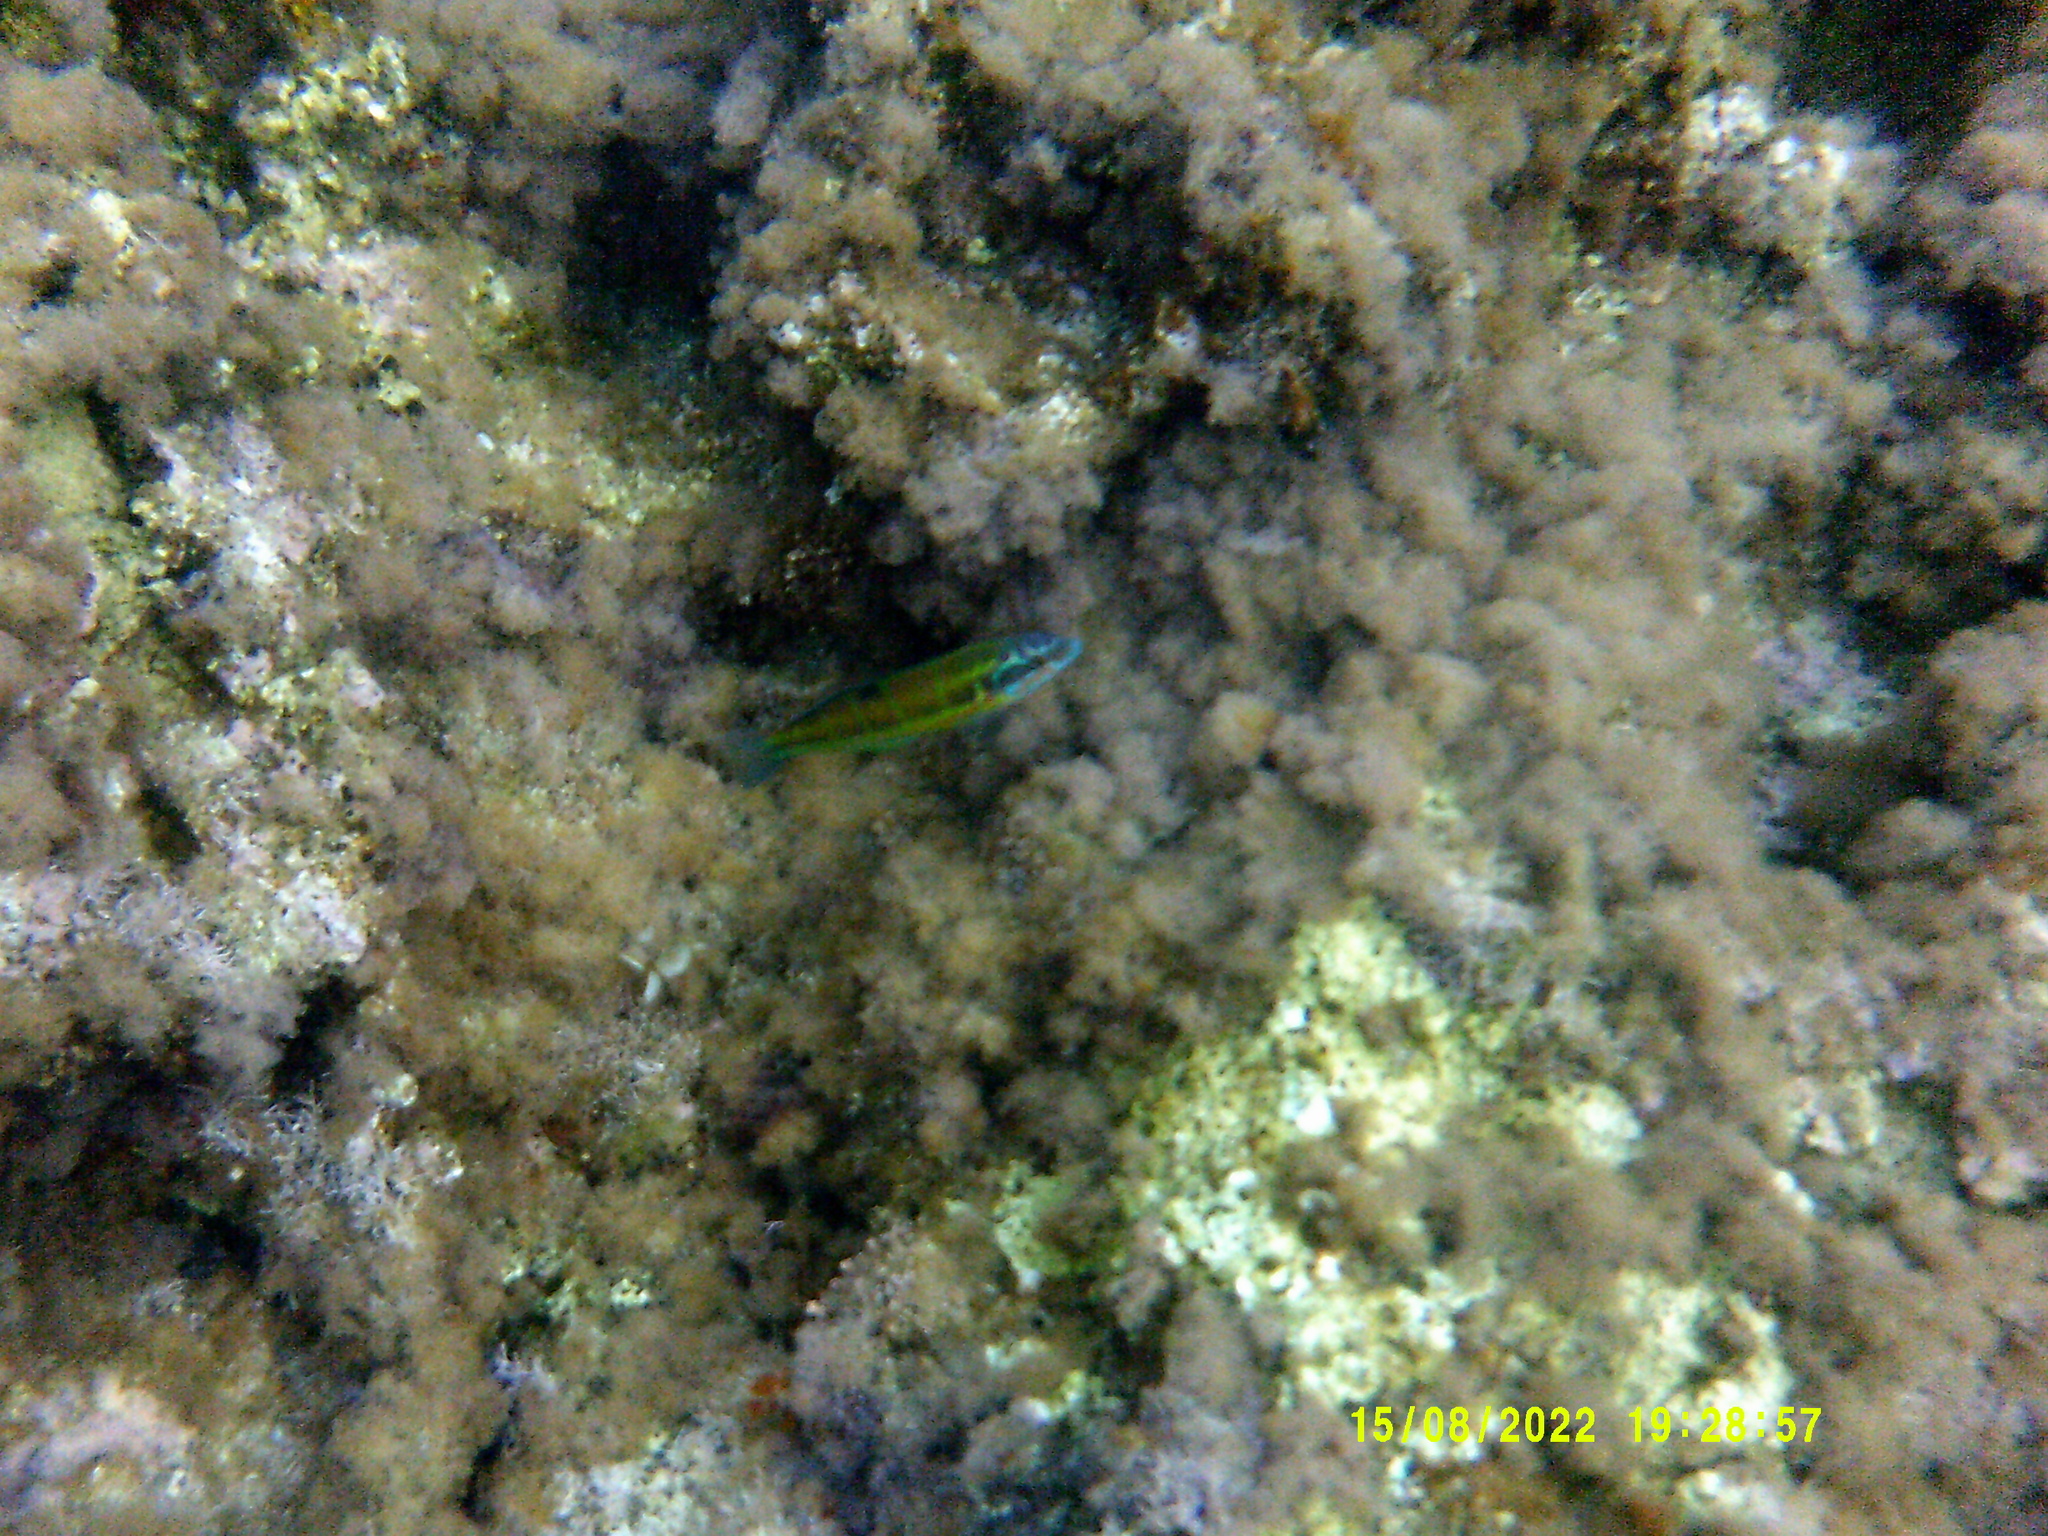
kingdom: Animalia
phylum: Chordata
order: Perciformes
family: Labridae
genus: Thalassoma
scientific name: Thalassoma pavo
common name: Ornate wrasse
